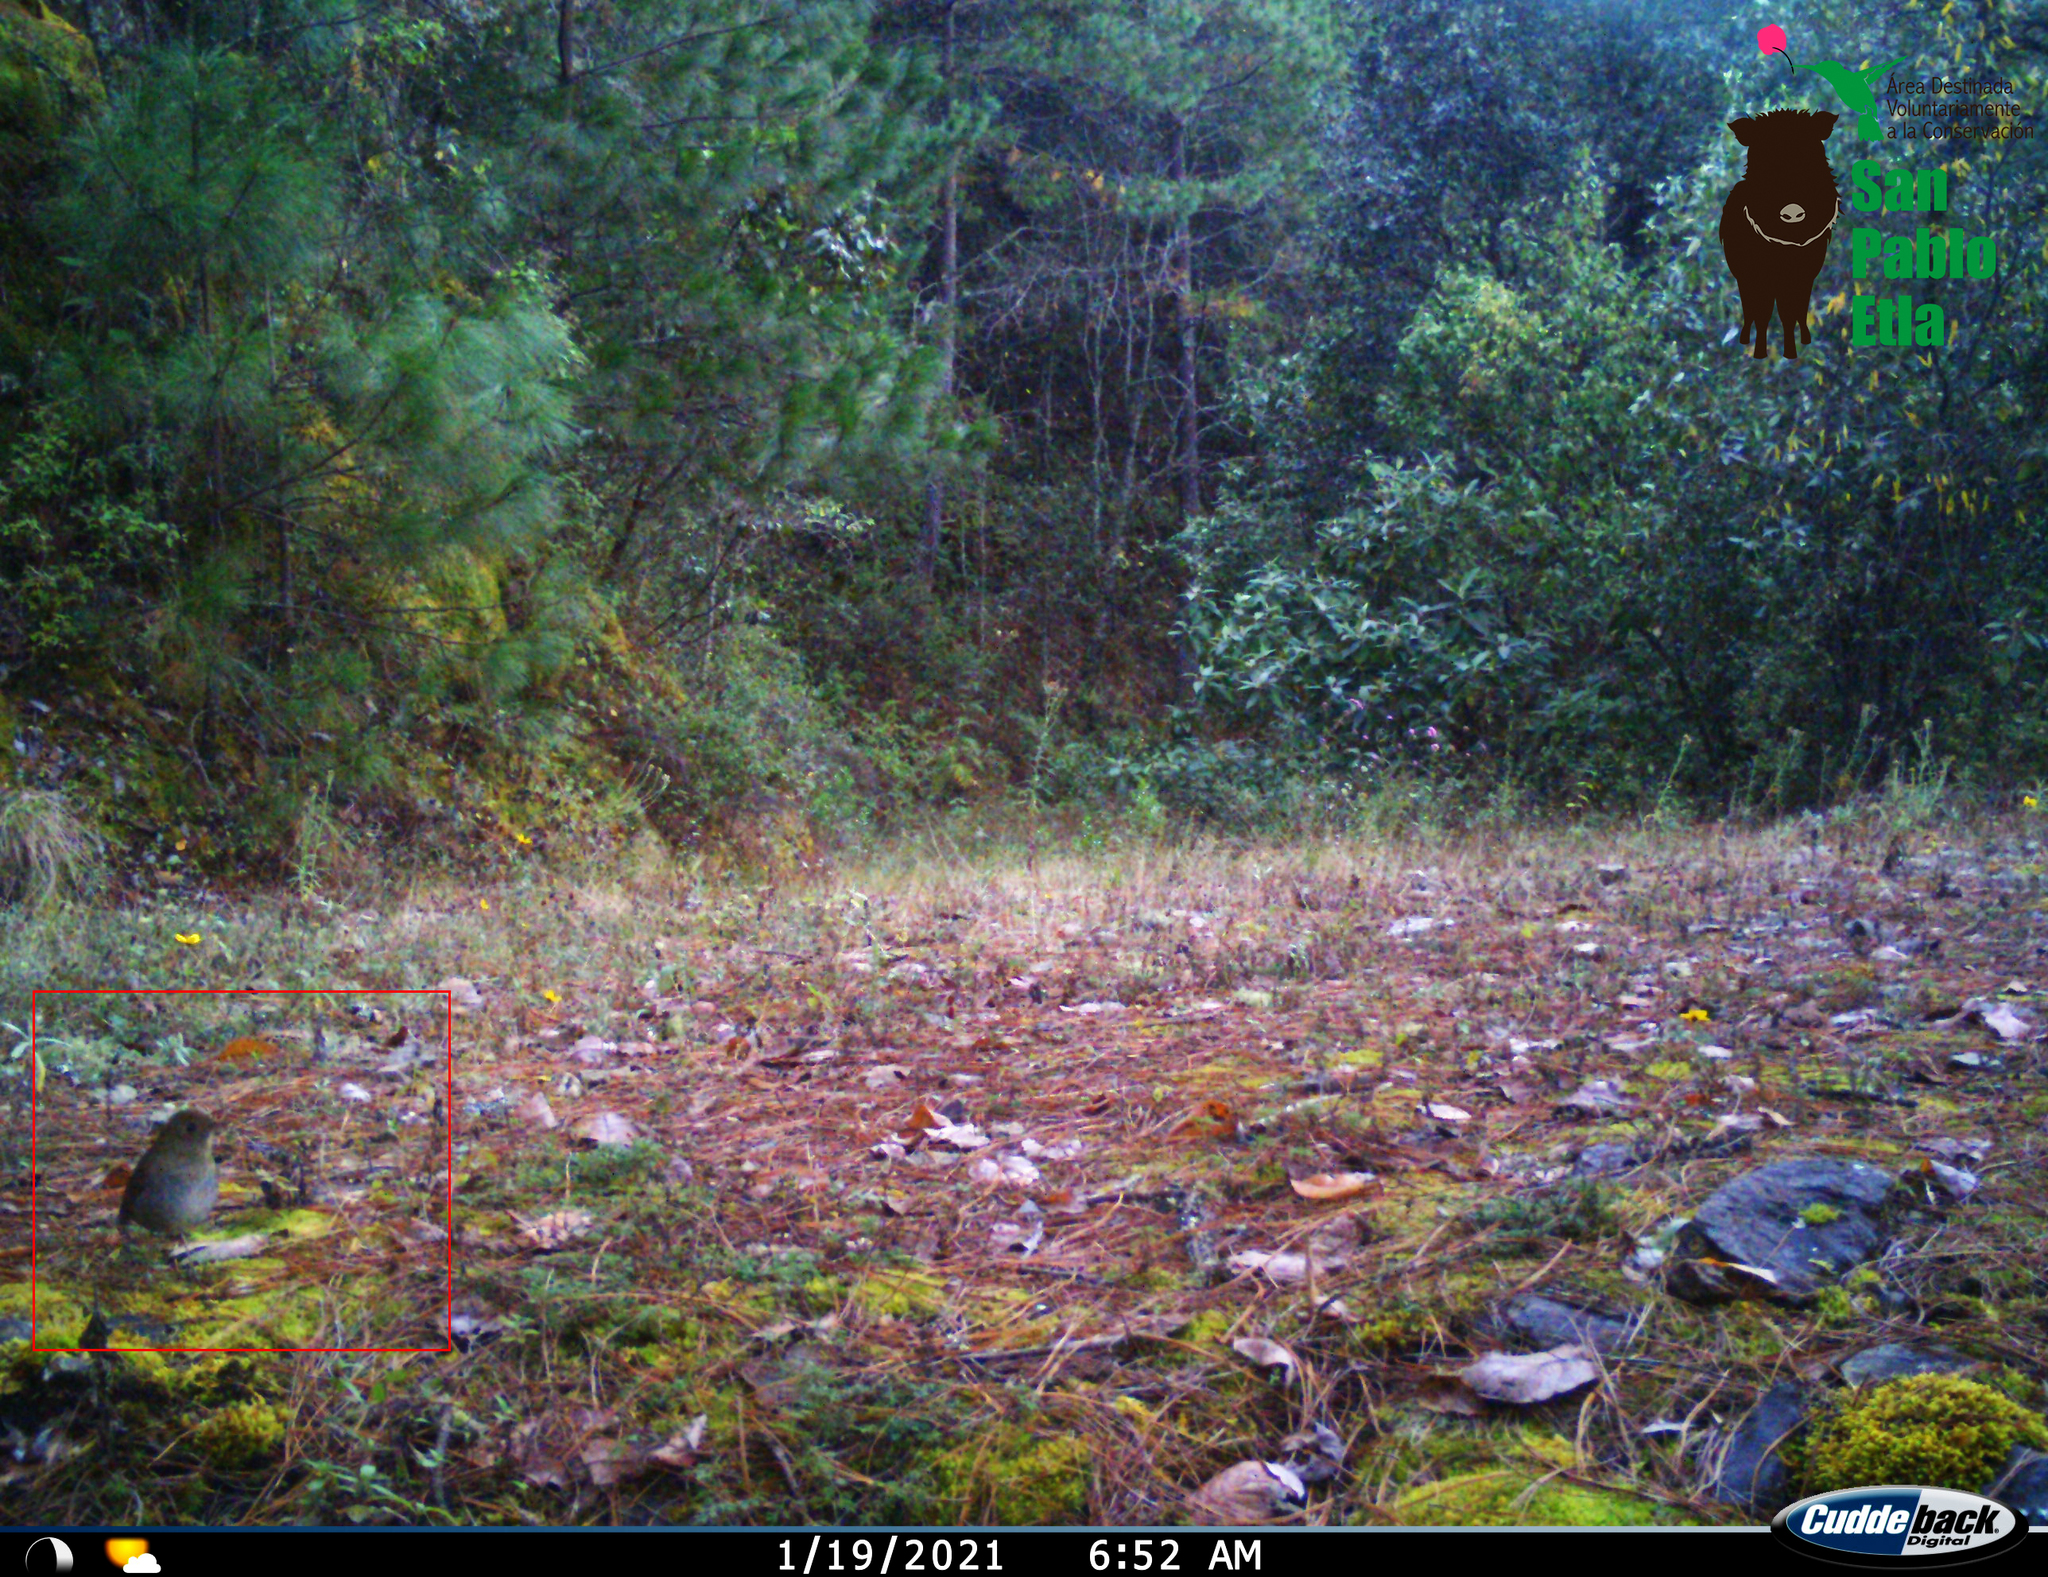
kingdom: Animalia
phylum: Chordata
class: Aves
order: Passeriformes
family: Turdidae
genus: Catharus
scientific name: Catharus frantzii
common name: Ruddy-capped nightingale-thrush
